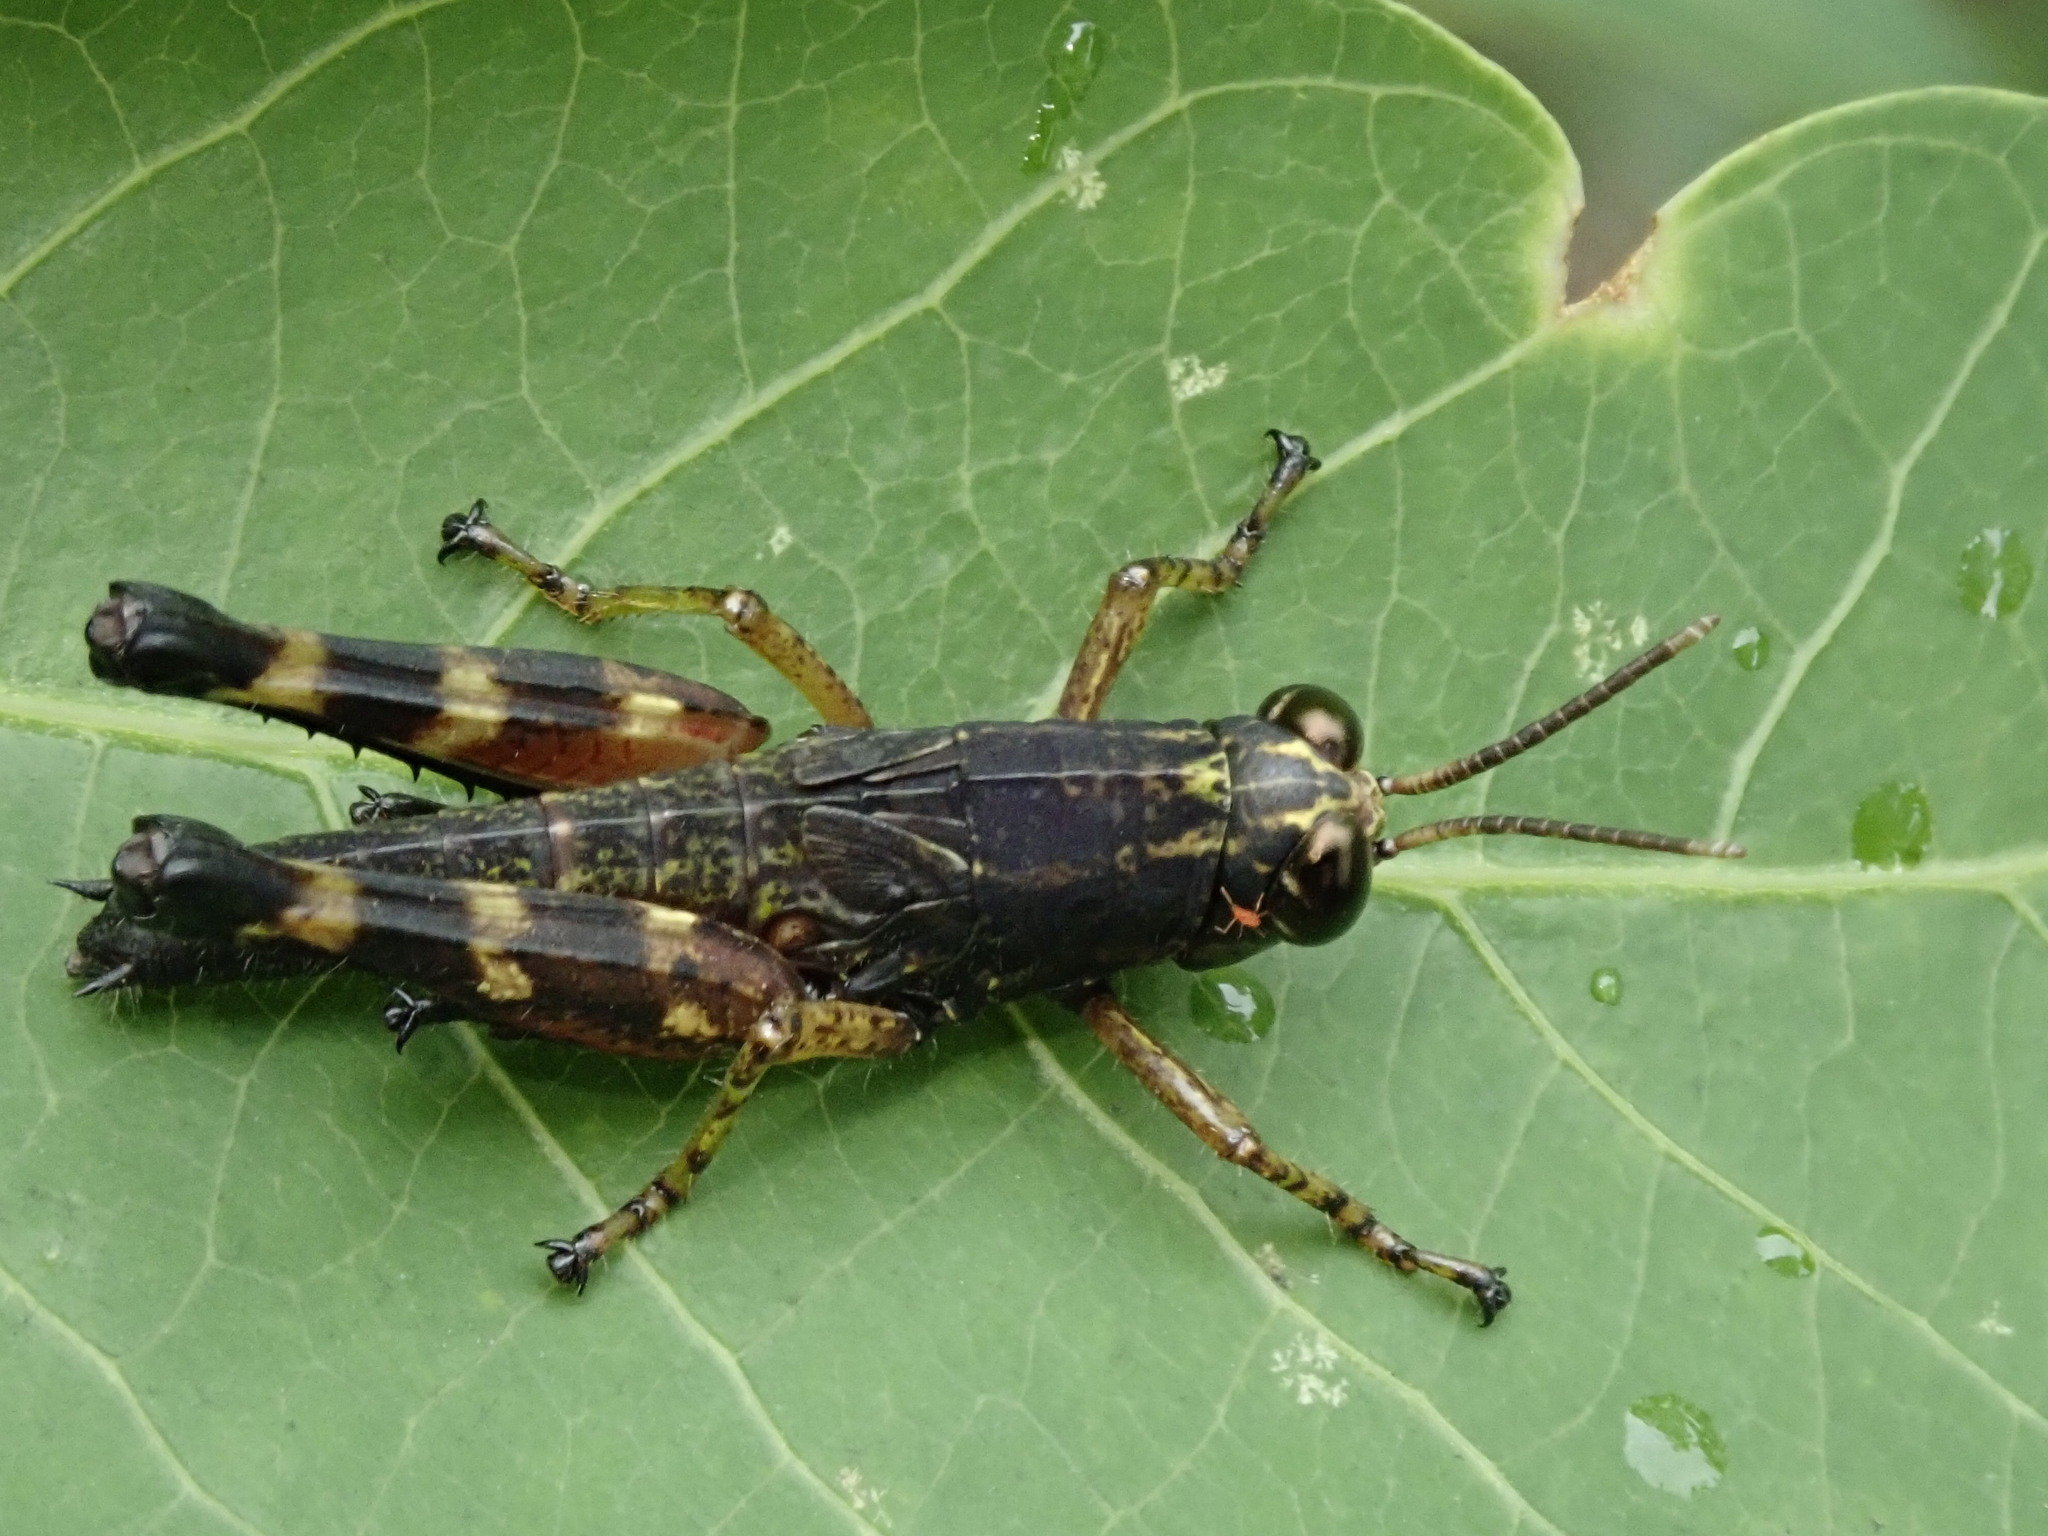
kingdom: Animalia
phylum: Arthropoda
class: Insecta
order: Orthoptera
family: Acrididae
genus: Tetrataenia
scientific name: Tetrataenia surinama
